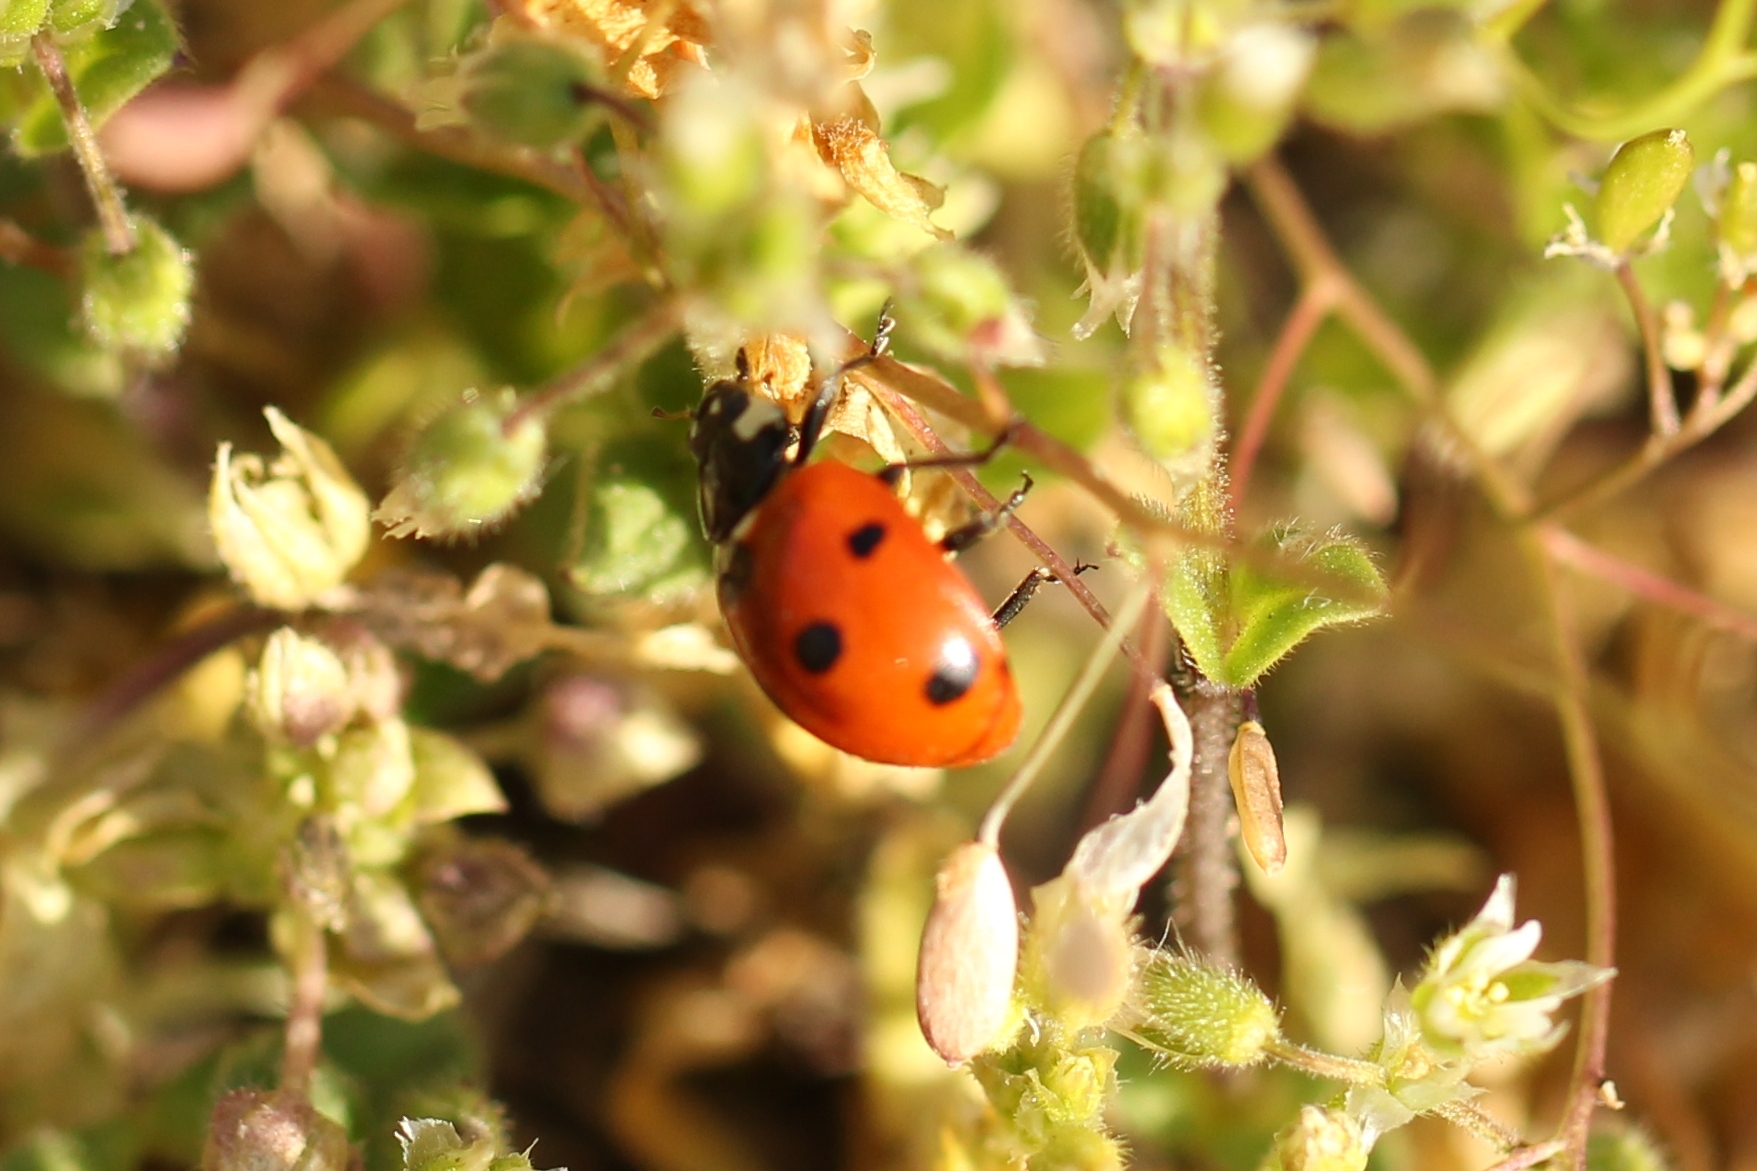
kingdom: Animalia
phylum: Arthropoda
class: Insecta
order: Coleoptera
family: Coccinellidae
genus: Coccinella
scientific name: Coccinella septempunctata
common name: Sevenspotted lady beetle
